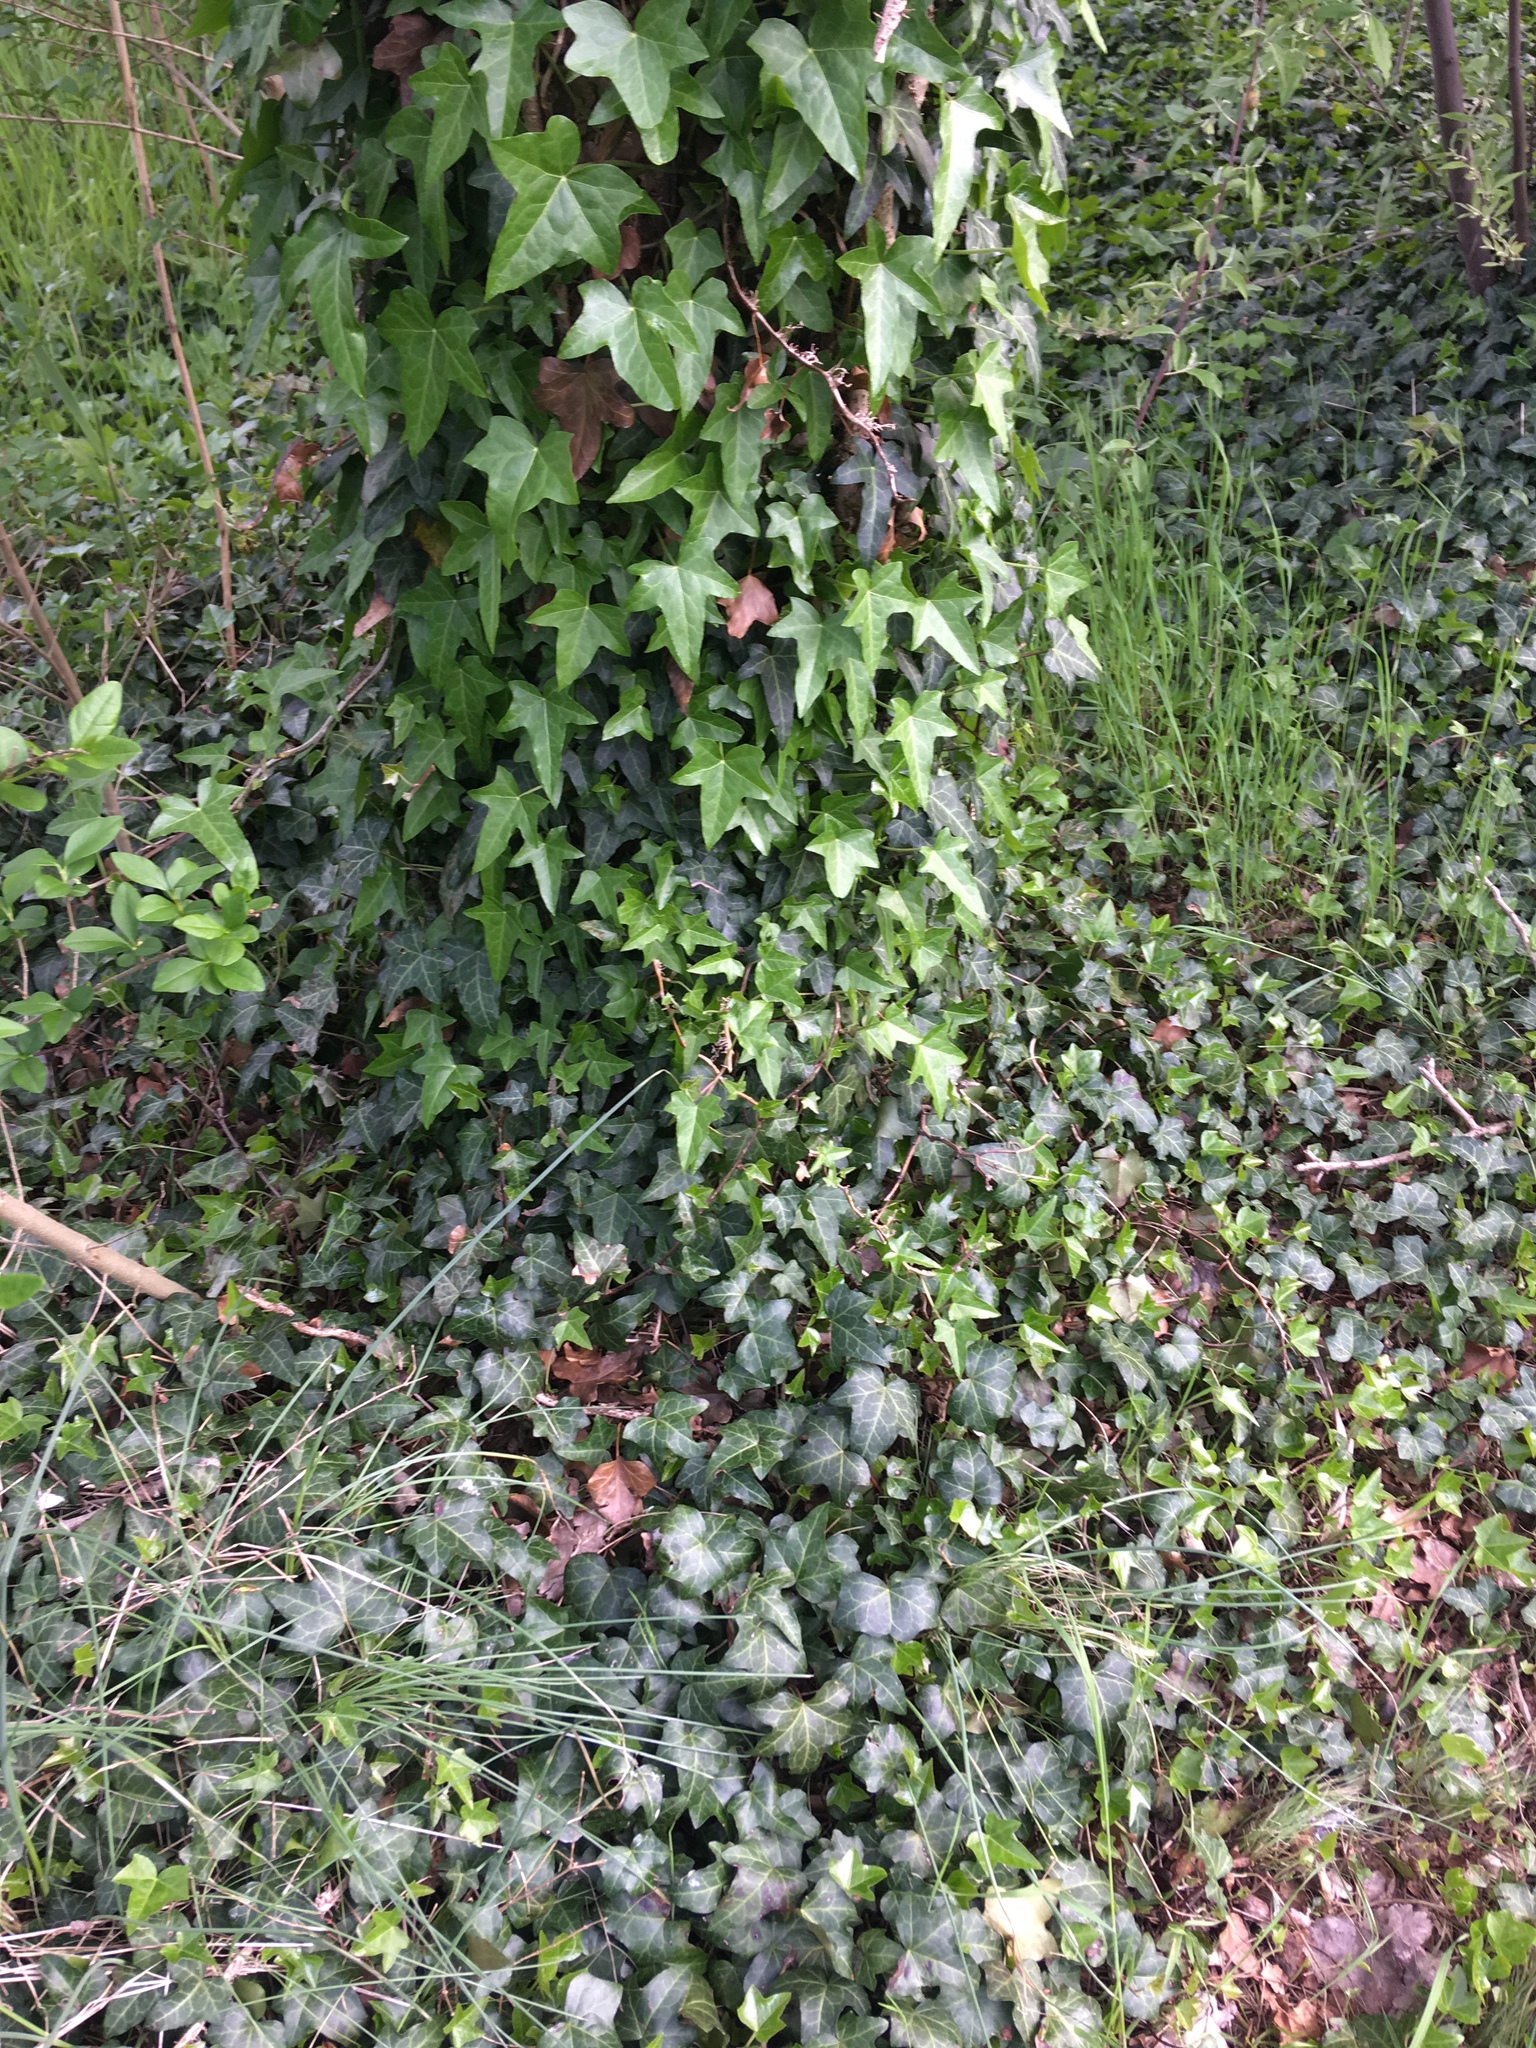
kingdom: Plantae
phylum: Tracheophyta
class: Magnoliopsida
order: Apiales
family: Araliaceae
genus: Hedera
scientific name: Hedera helix
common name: Ivy
